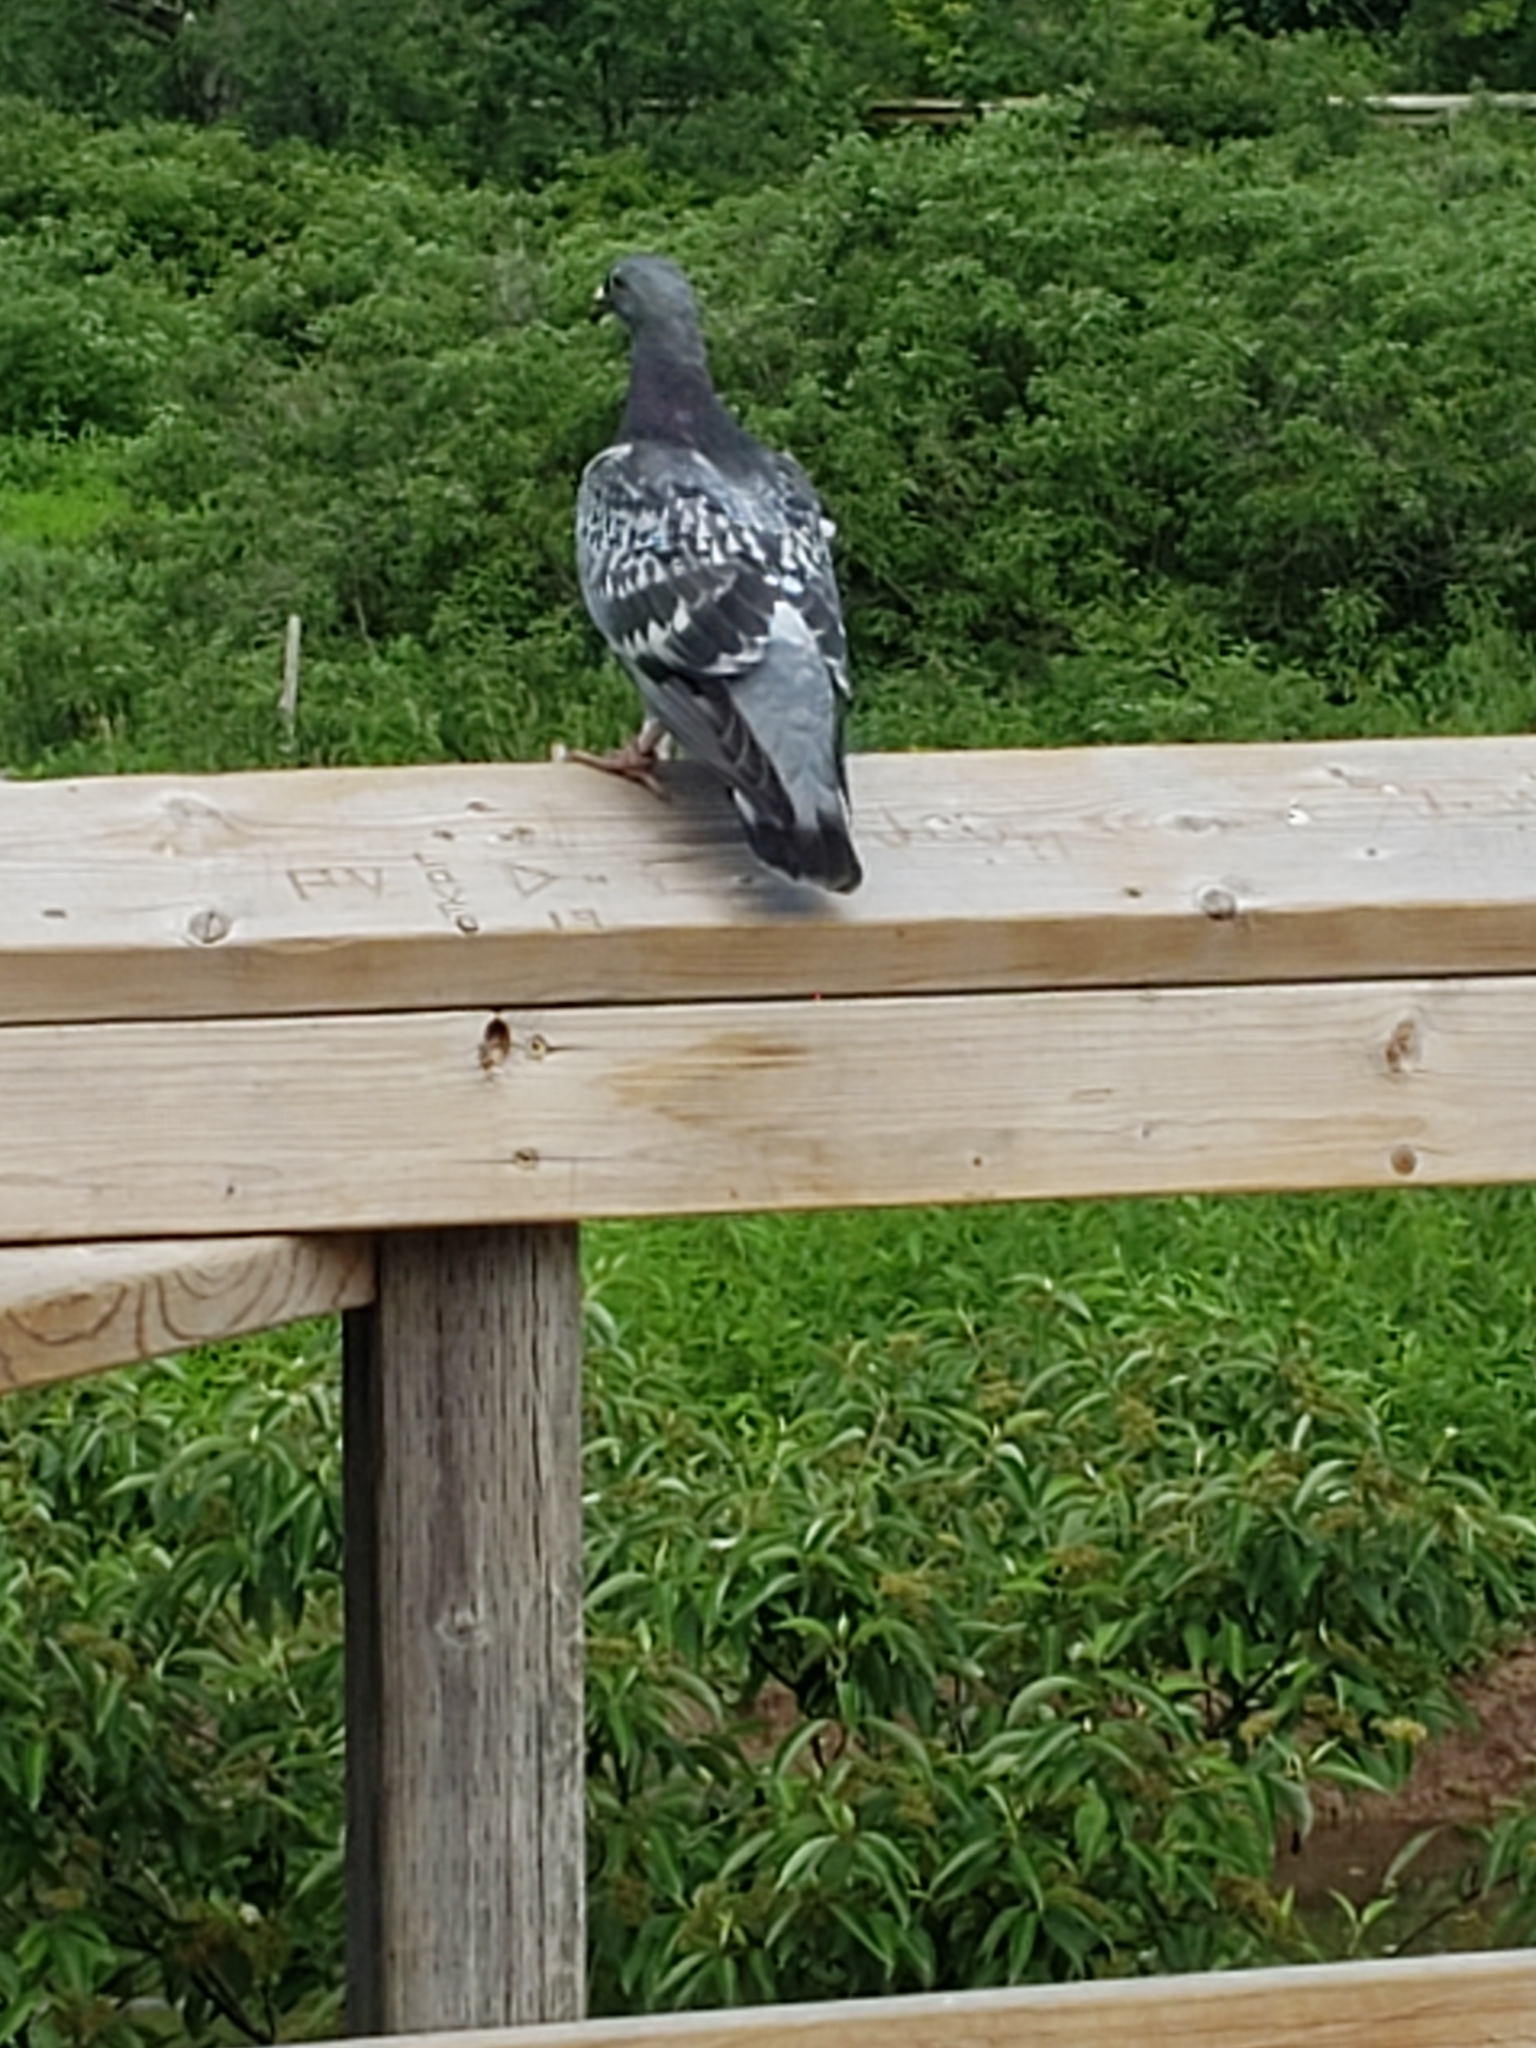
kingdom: Animalia
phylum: Chordata
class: Aves
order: Columbiformes
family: Columbidae
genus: Columba
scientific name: Columba livia
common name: Rock pigeon
